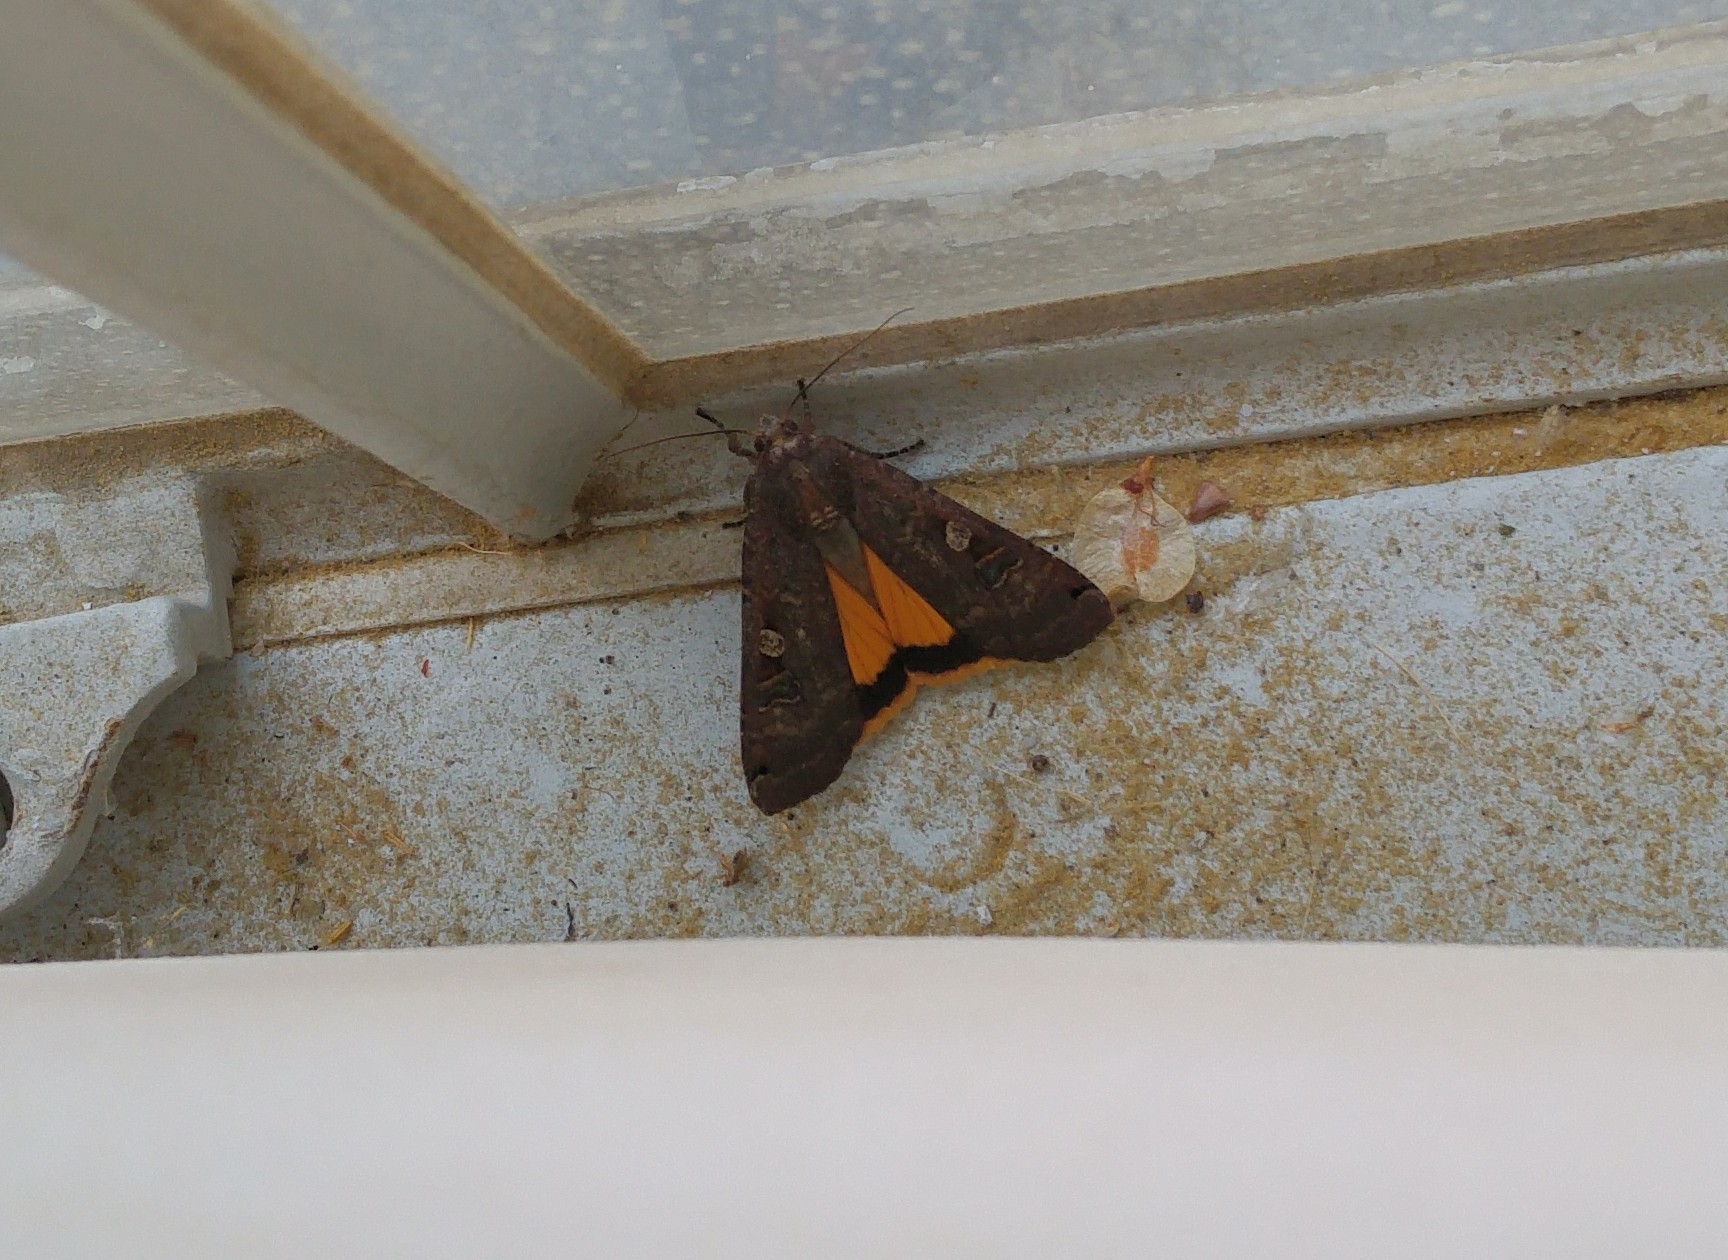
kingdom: Animalia
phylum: Arthropoda
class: Insecta
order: Lepidoptera
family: Noctuidae
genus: Noctua
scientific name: Noctua pronuba
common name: Large yellow underwing
